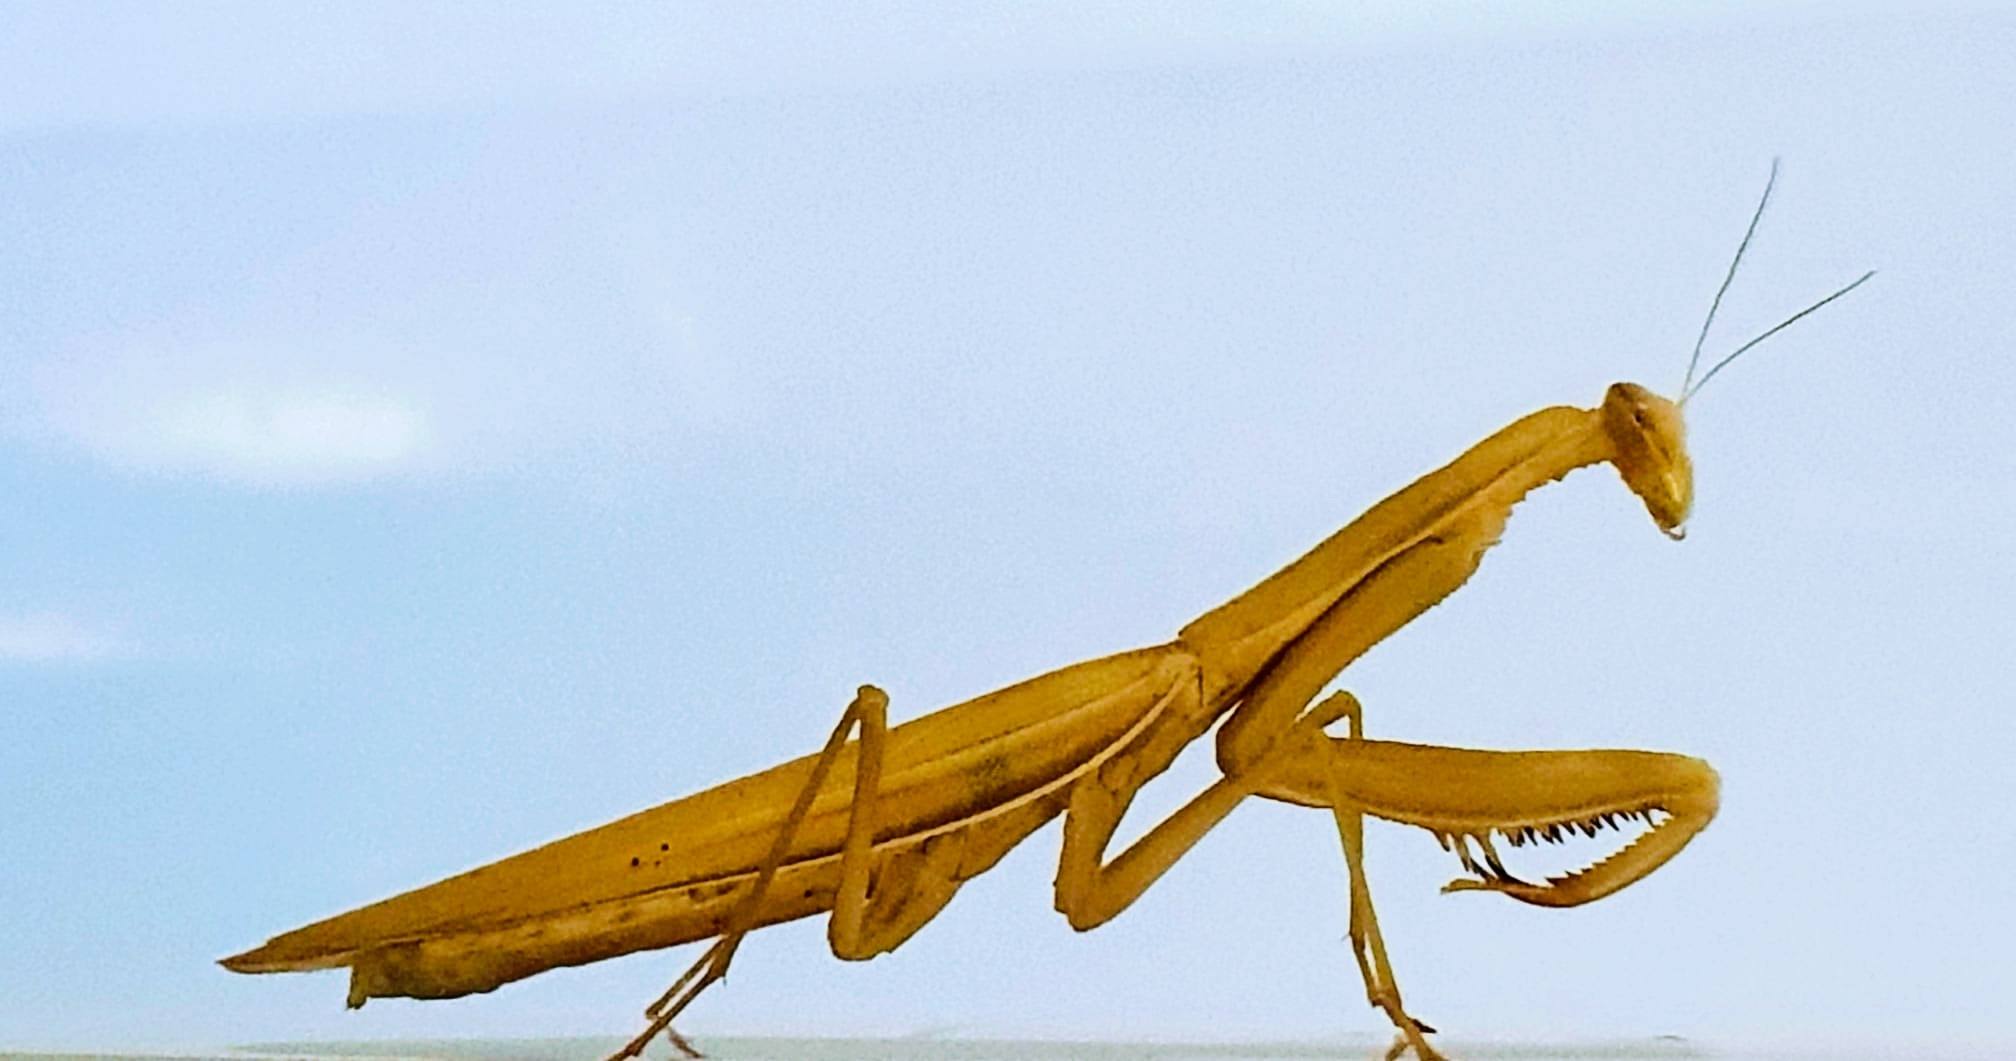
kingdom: Animalia
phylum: Arthropoda
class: Insecta
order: Mantodea
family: Mantidae
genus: Mantis
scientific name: Mantis religiosa
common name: Praying mantis
